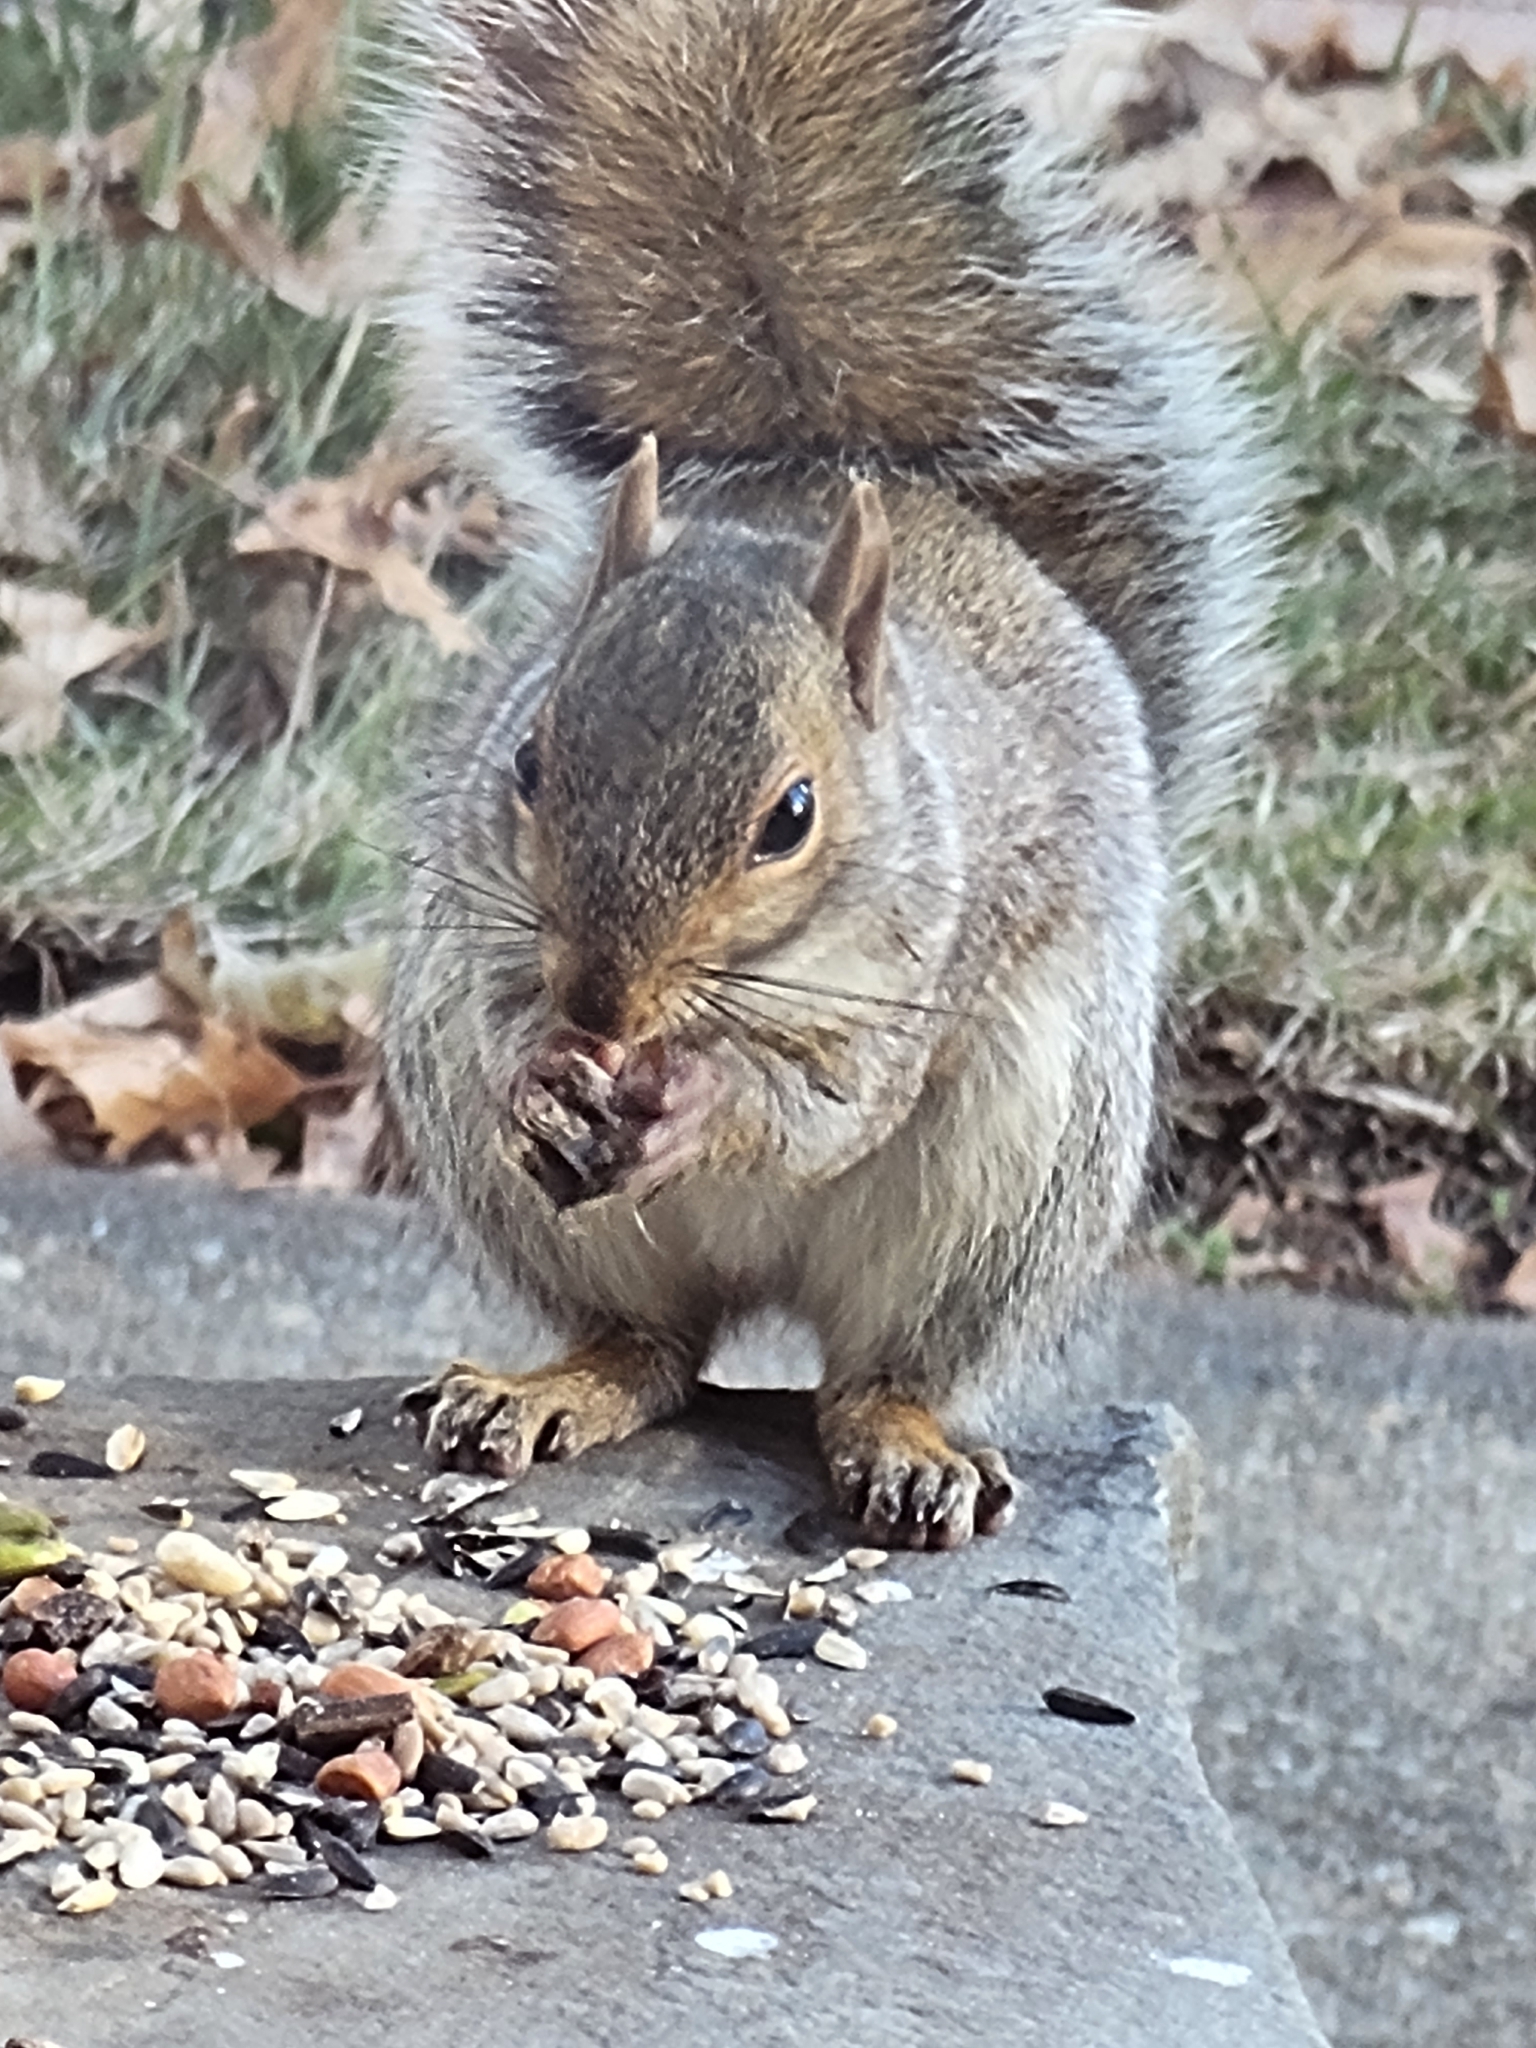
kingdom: Animalia
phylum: Chordata
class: Mammalia
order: Rodentia
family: Sciuridae
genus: Sciurus
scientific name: Sciurus carolinensis
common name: Eastern gray squirrel
